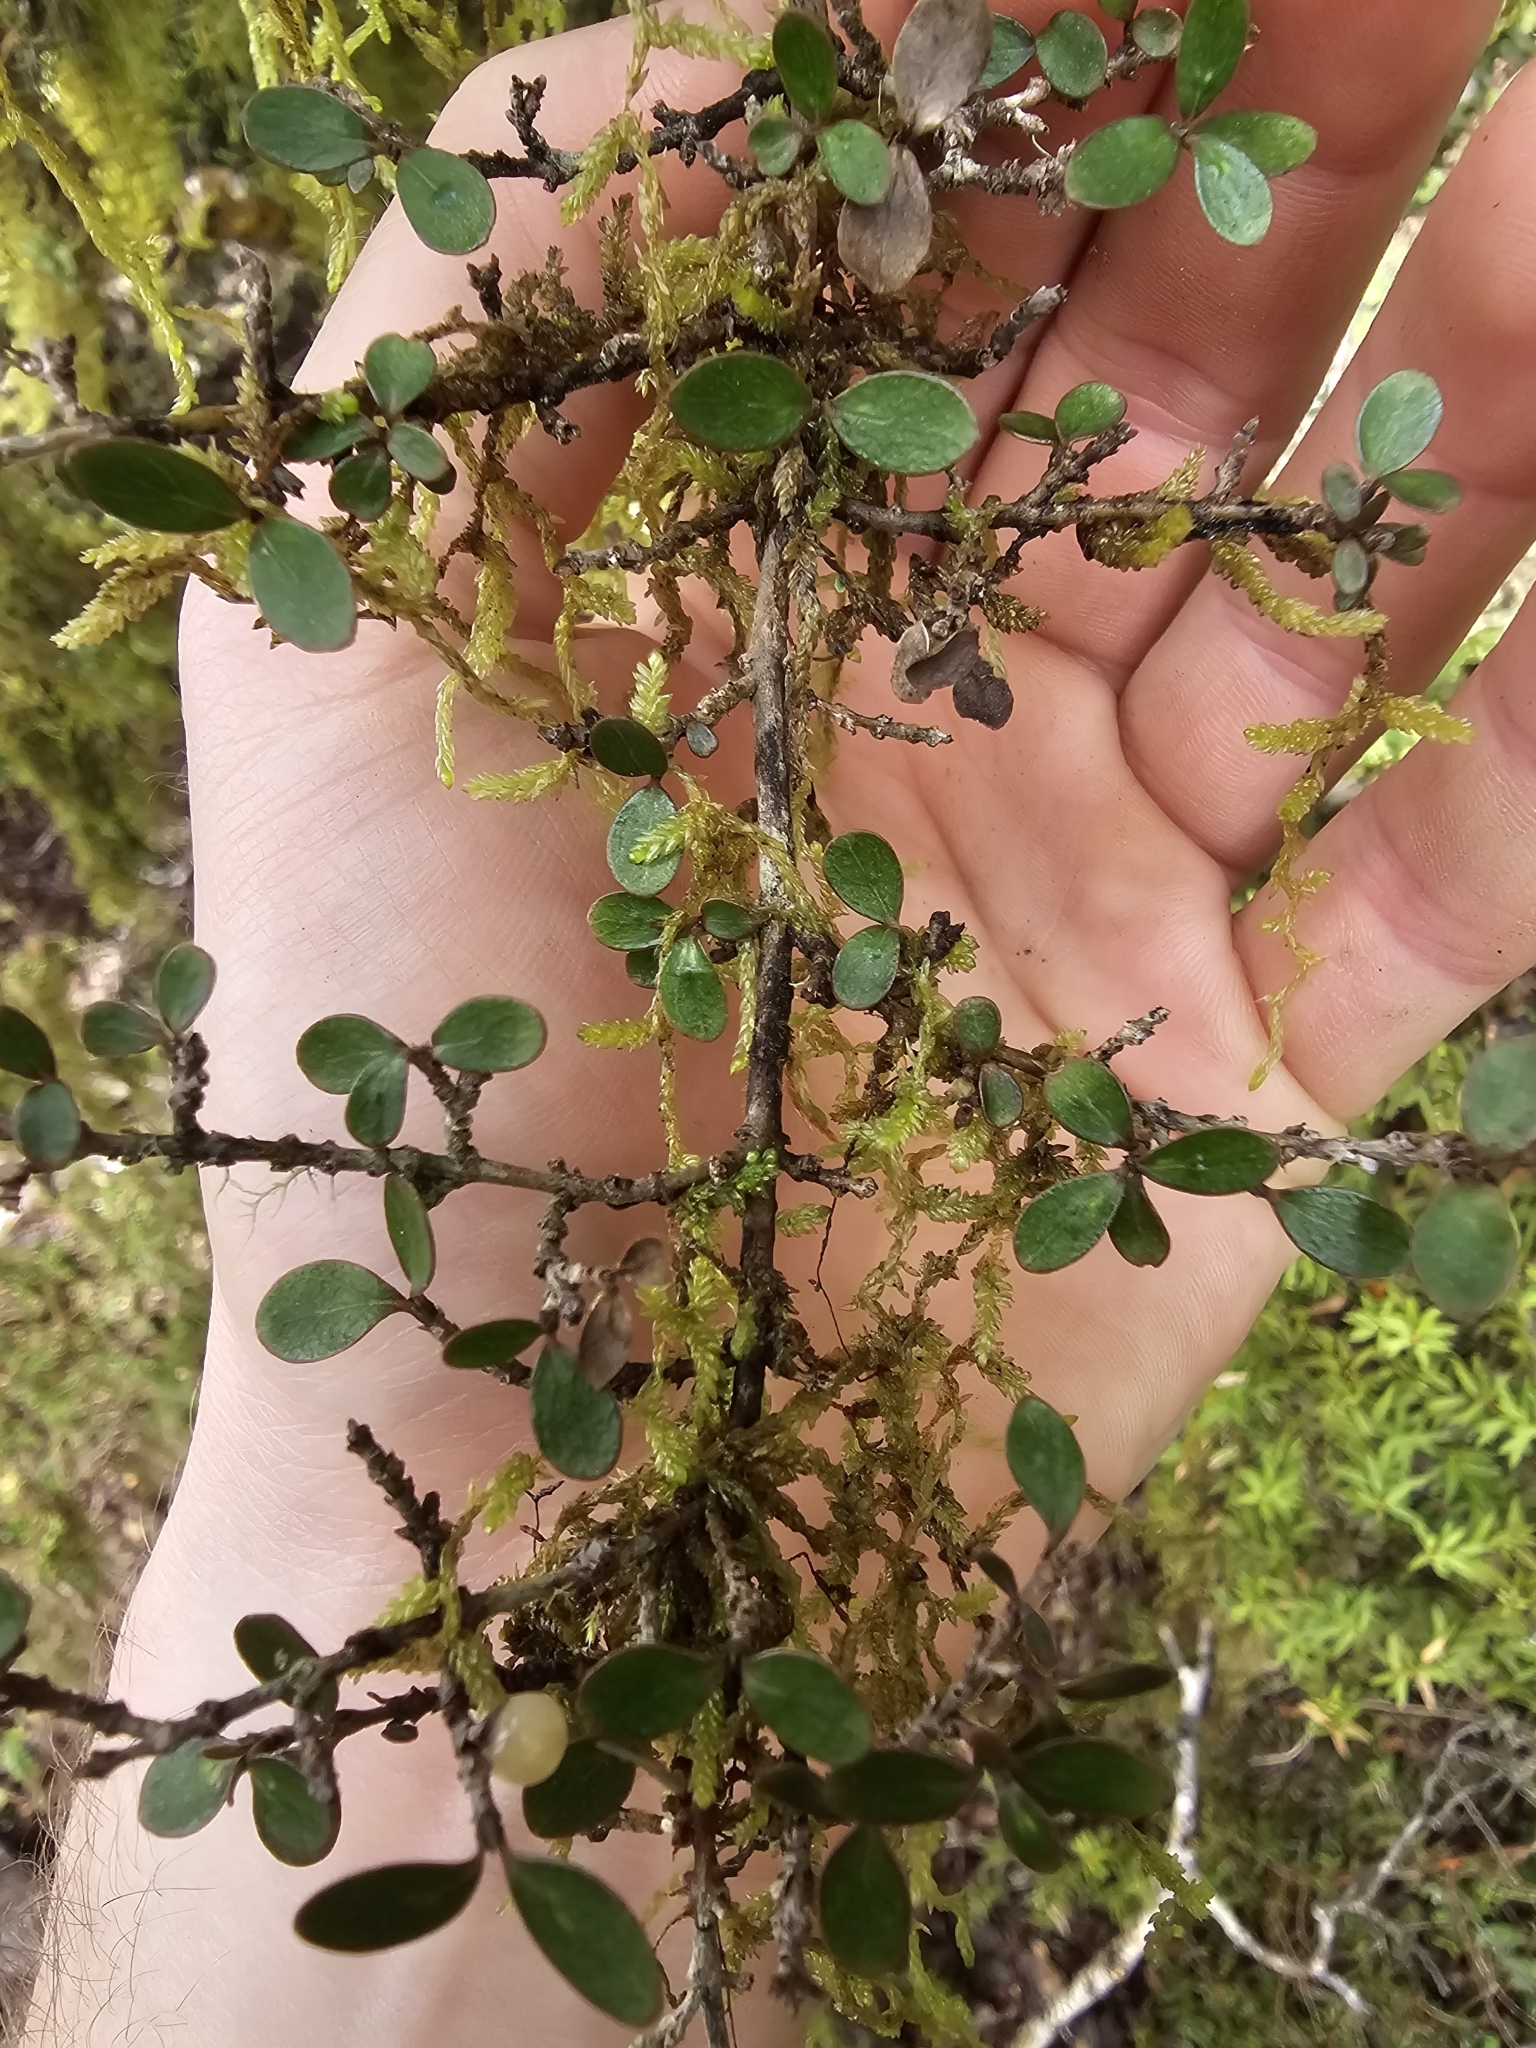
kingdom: Plantae
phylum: Tracheophyta
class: Magnoliopsida
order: Gentianales
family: Rubiaceae
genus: Coprosma
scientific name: Coprosma dumosa
